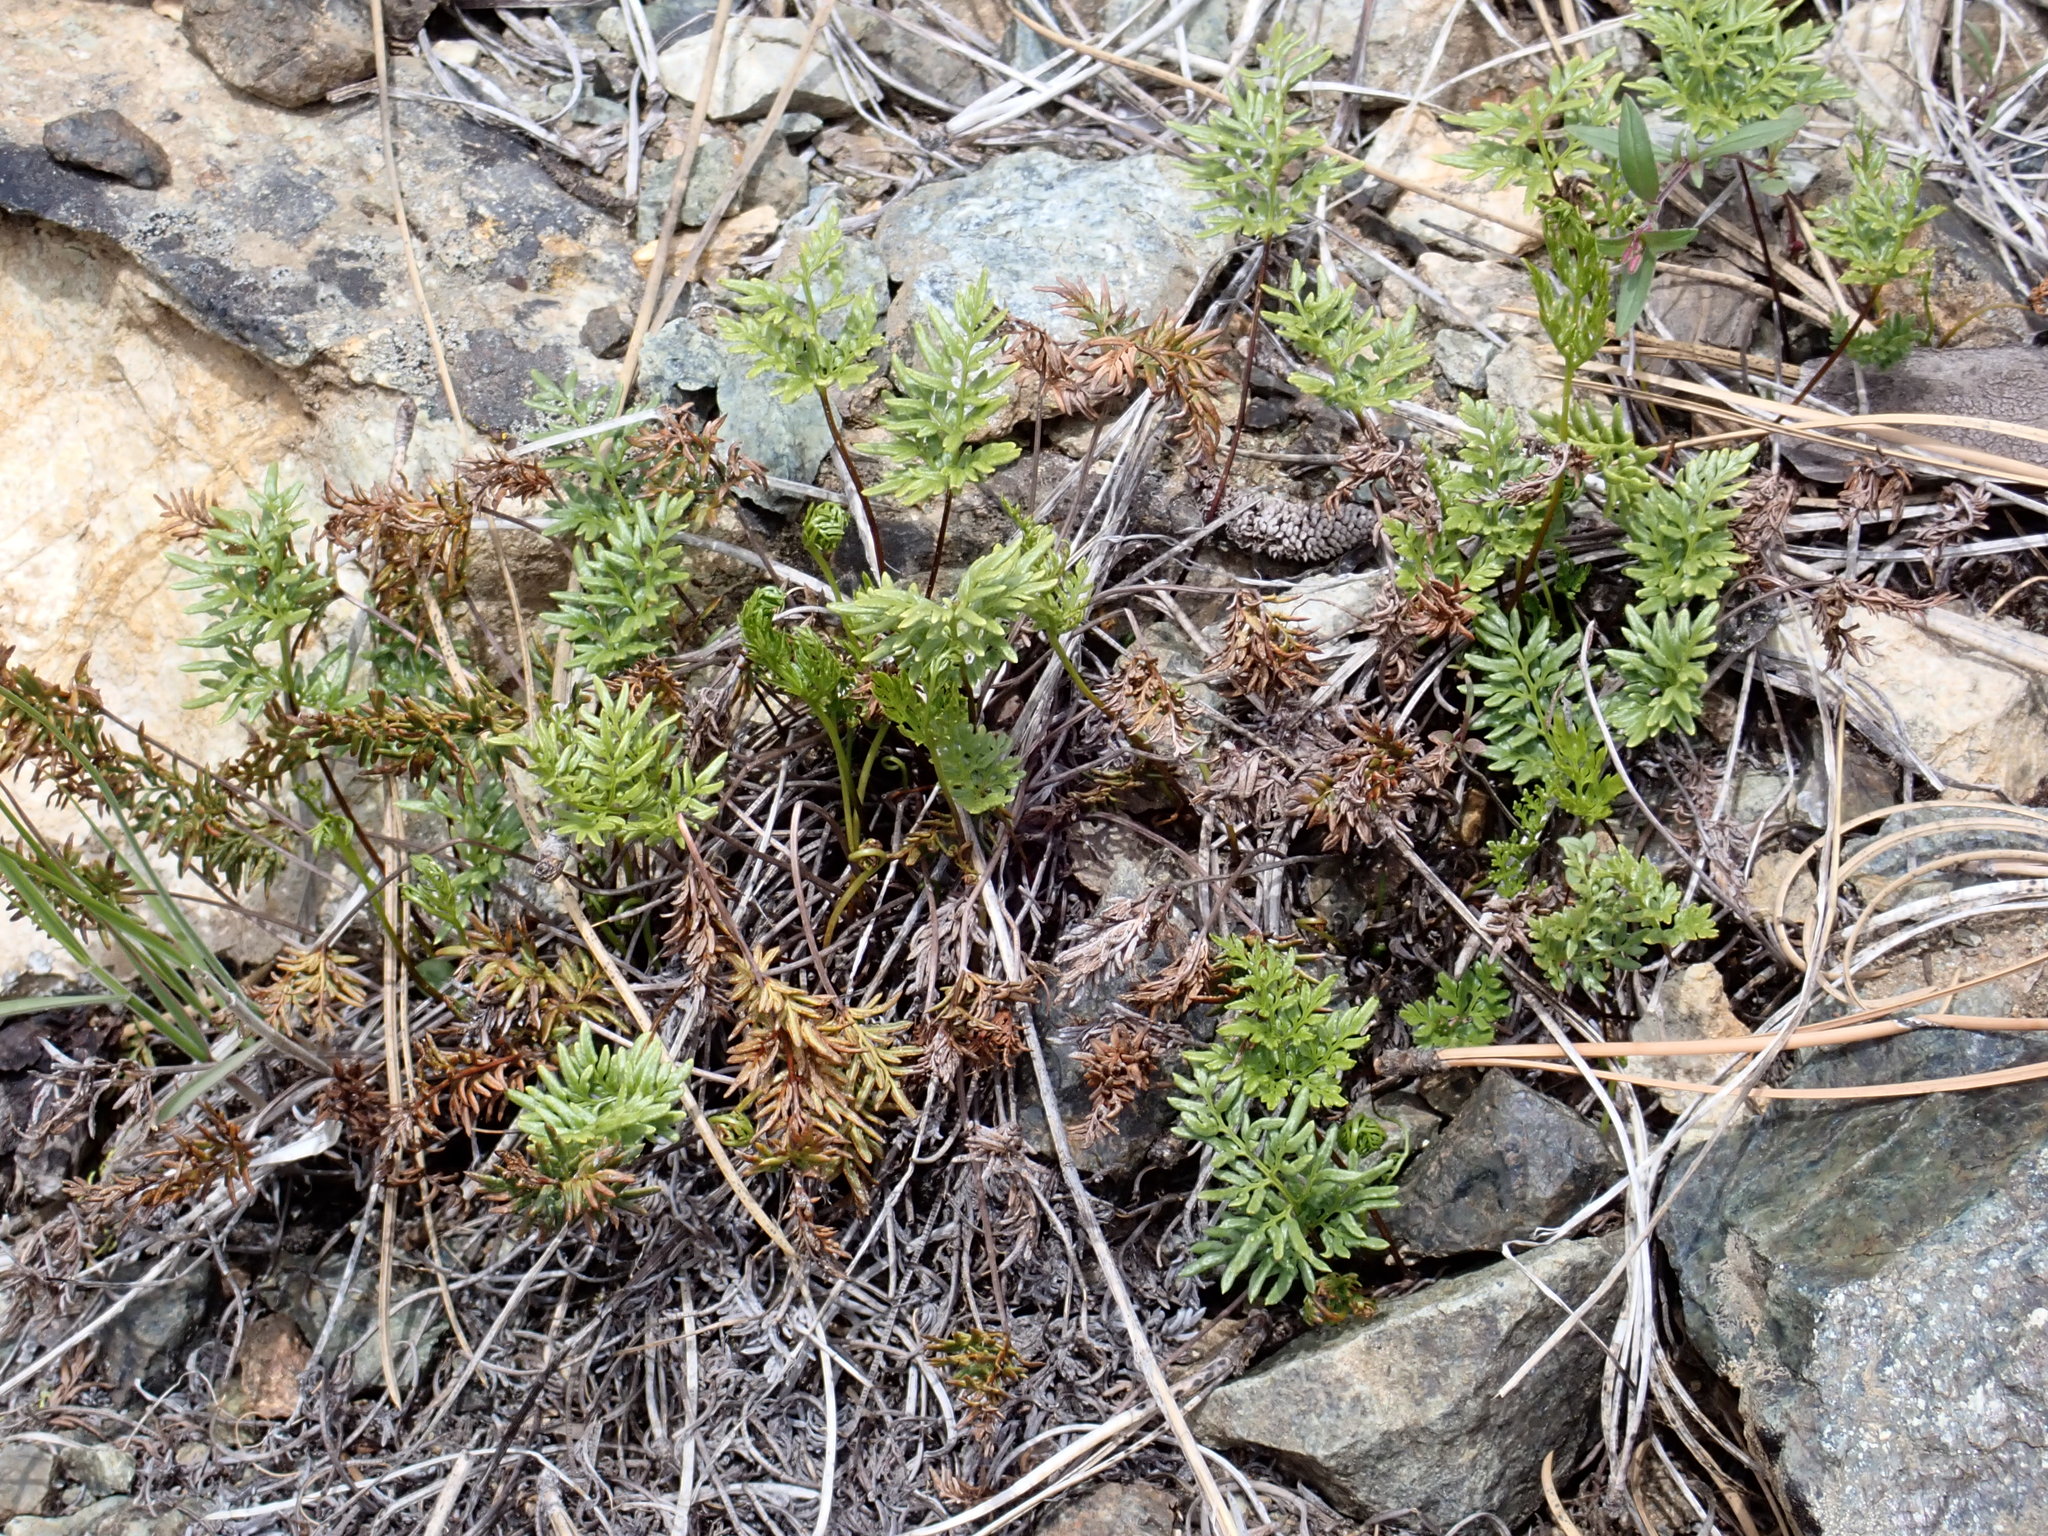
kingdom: Plantae
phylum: Tracheophyta
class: Polypodiopsida
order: Polypodiales
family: Pteridaceae
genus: Aspidotis
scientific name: Aspidotis densa
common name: Indian's dream
